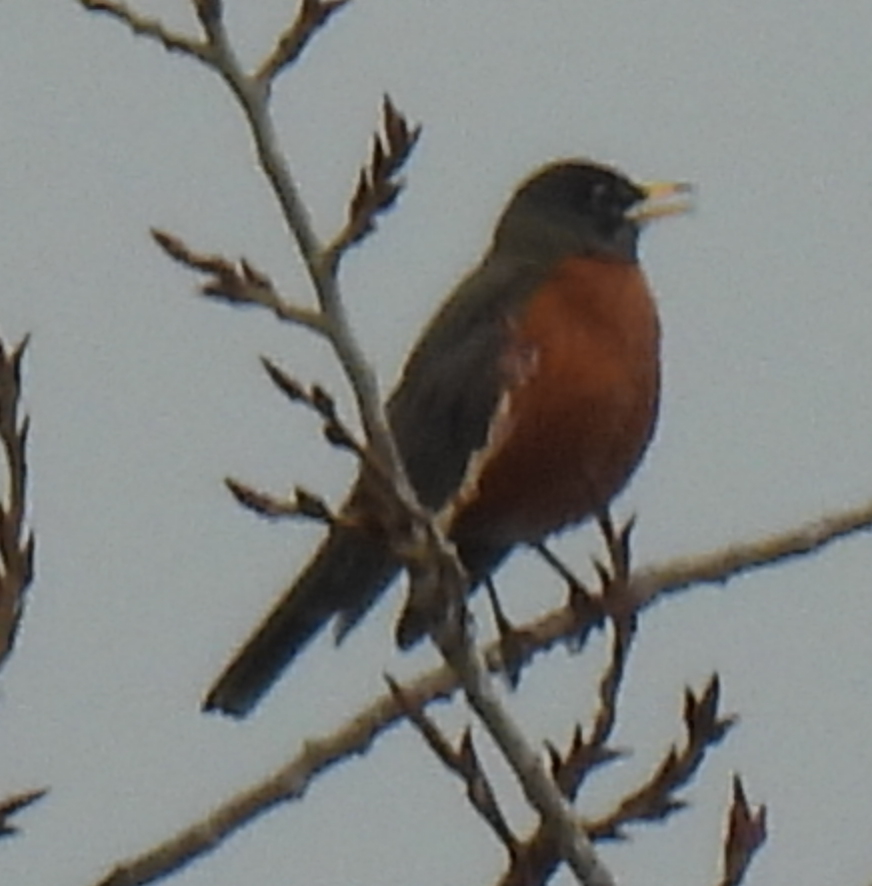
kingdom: Animalia
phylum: Chordata
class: Aves
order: Passeriformes
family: Turdidae
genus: Turdus
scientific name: Turdus migratorius
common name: American robin
